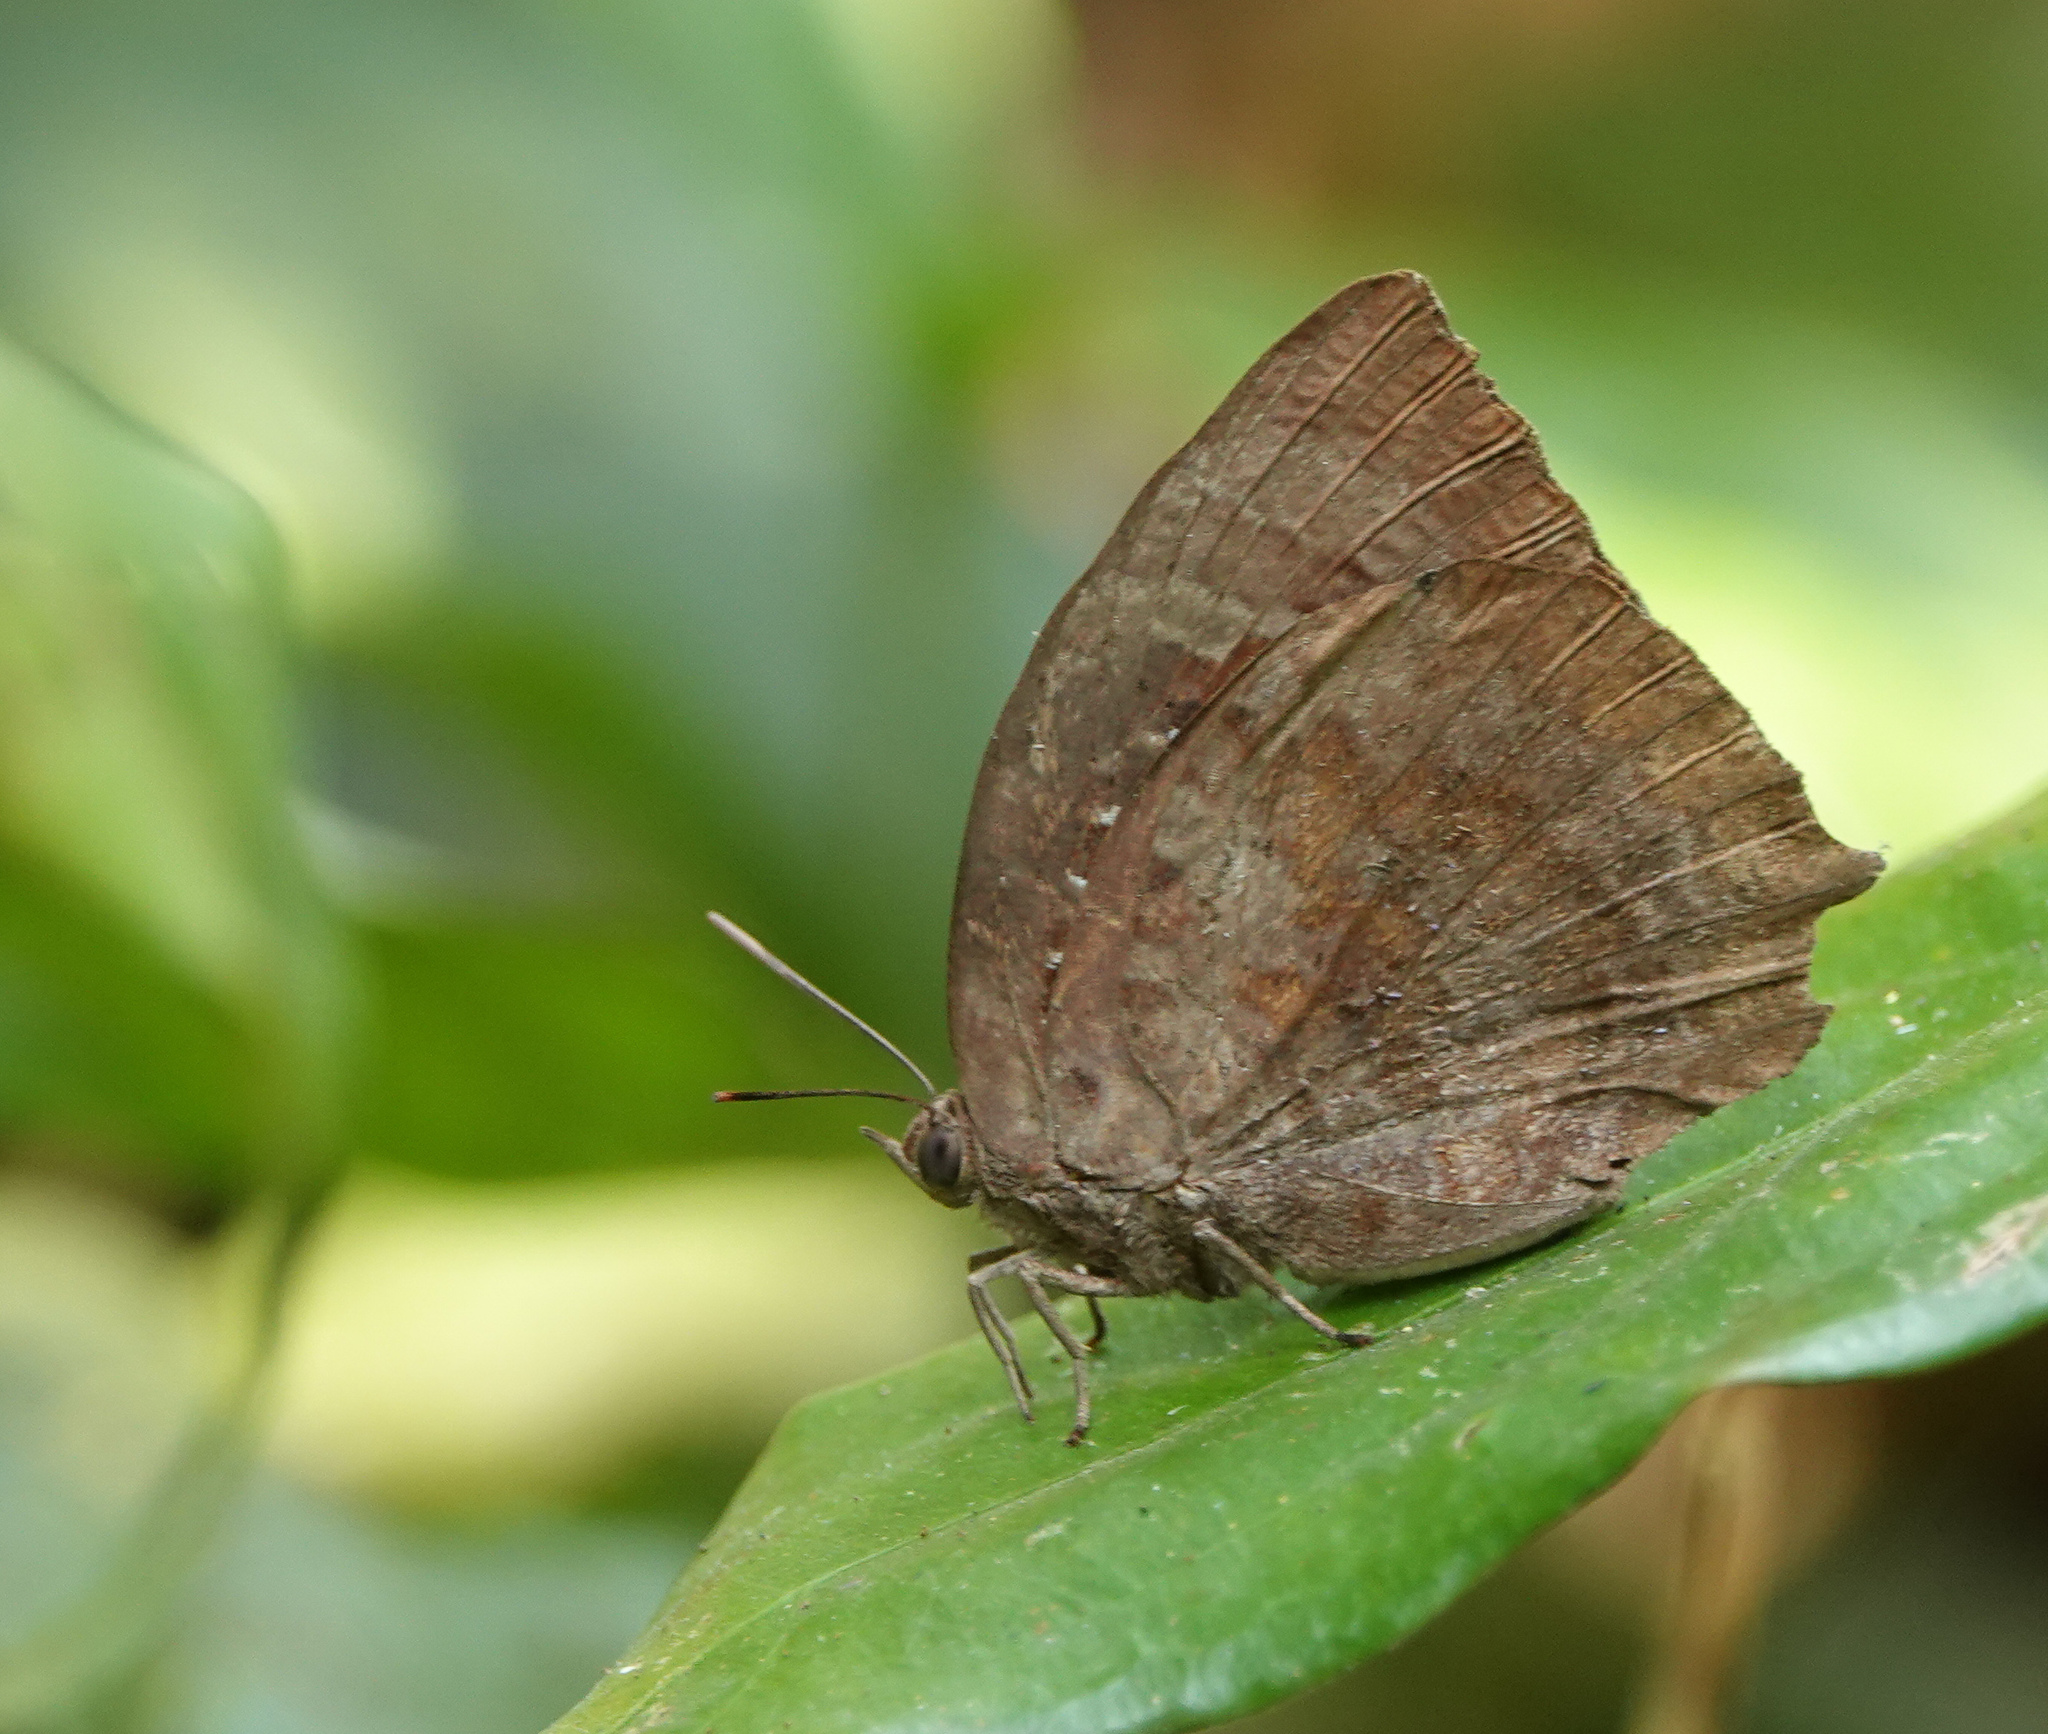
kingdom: Animalia
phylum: Arthropoda
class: Insecta
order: Lepidoptera
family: Lycaenidae
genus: Arhopala
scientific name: Arhopala centaurus
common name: Dull oak-blue
